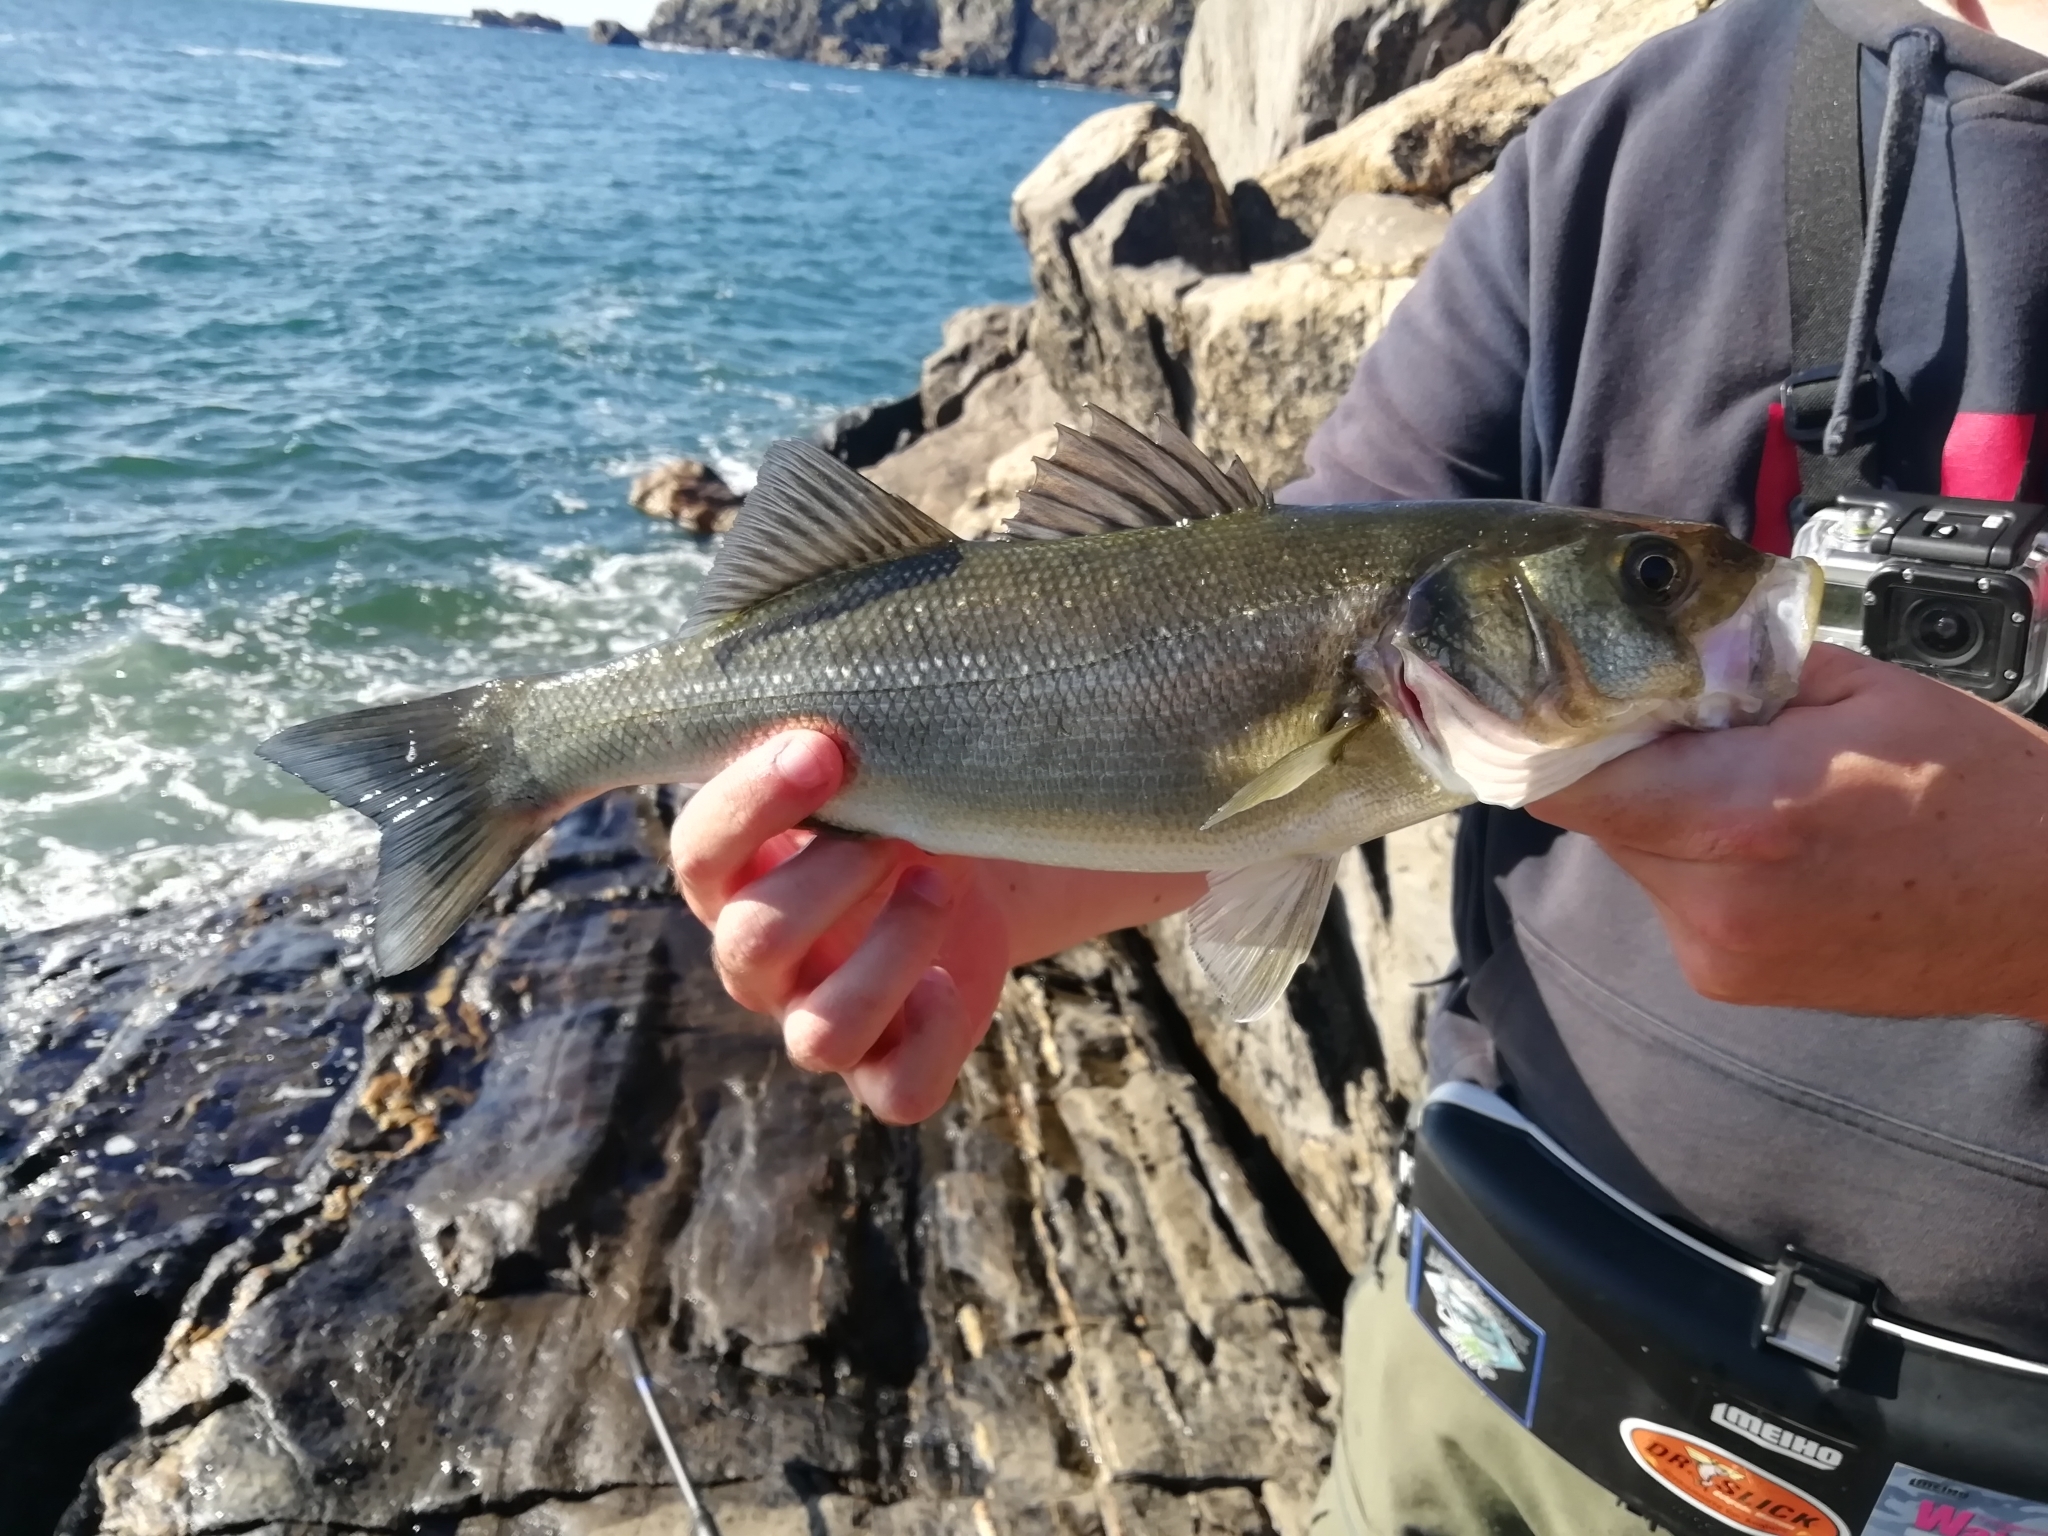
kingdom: Animalia
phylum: Chordata
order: Perciformes
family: Moronidae
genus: Dicentrarchus
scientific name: Dicentrarchus labrax
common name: European seabass
